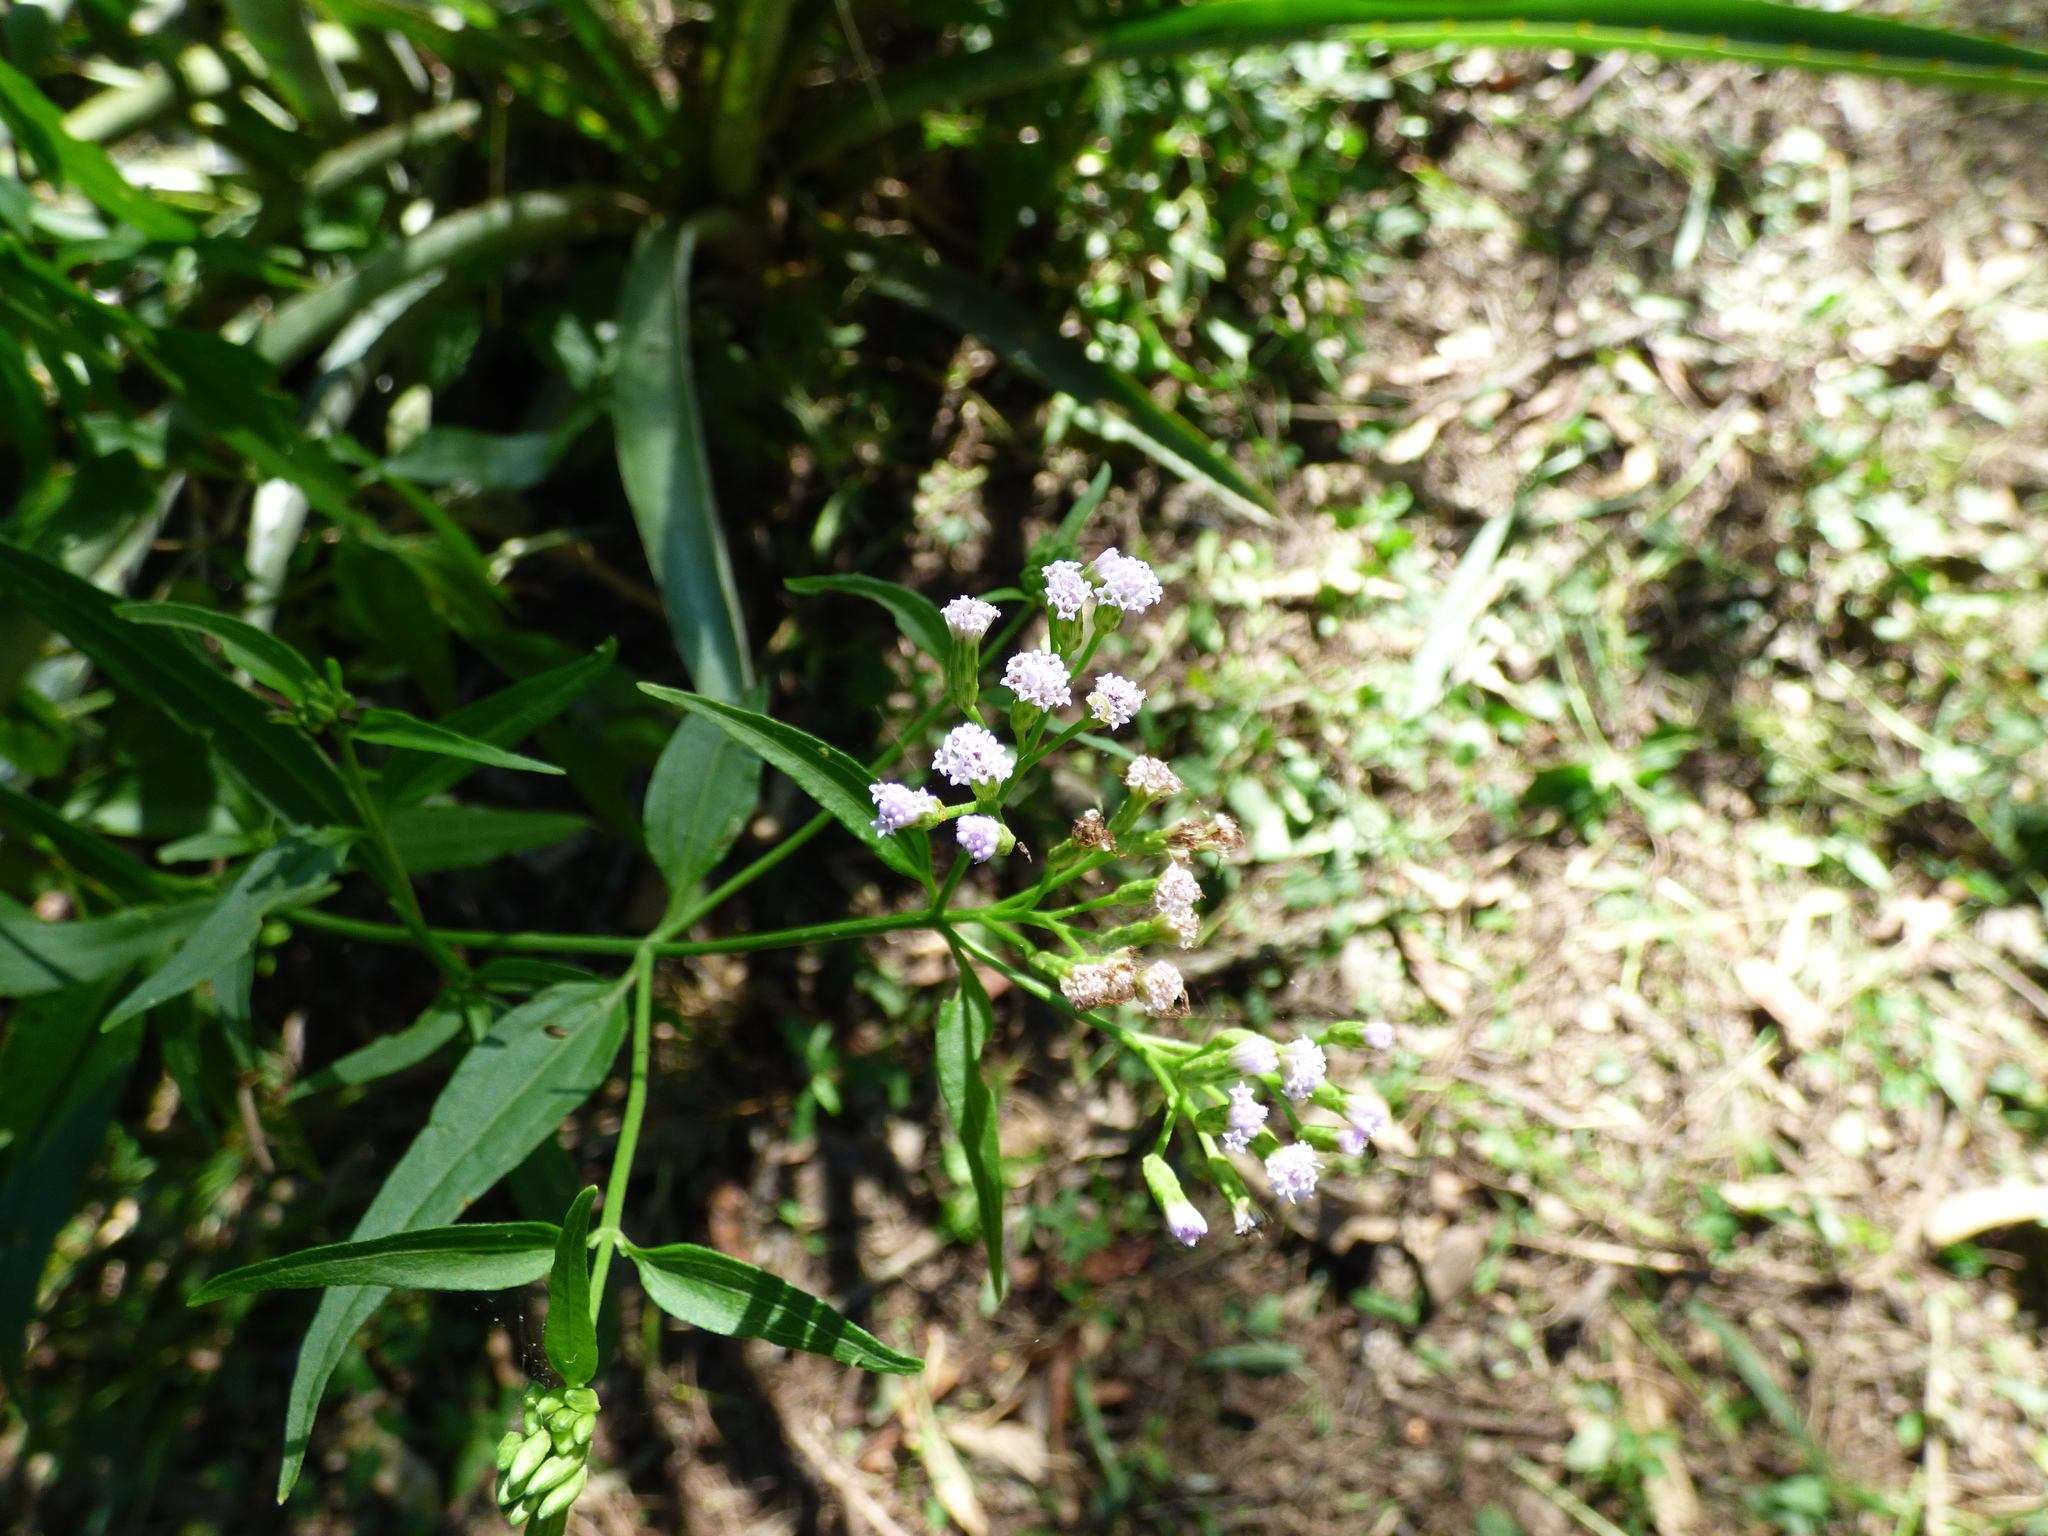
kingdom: Plantae
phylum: Tracheophyta
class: Magnoliopsida
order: Asterales
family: Asteraceae
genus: Chromolaena
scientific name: Chromolaena christieana
